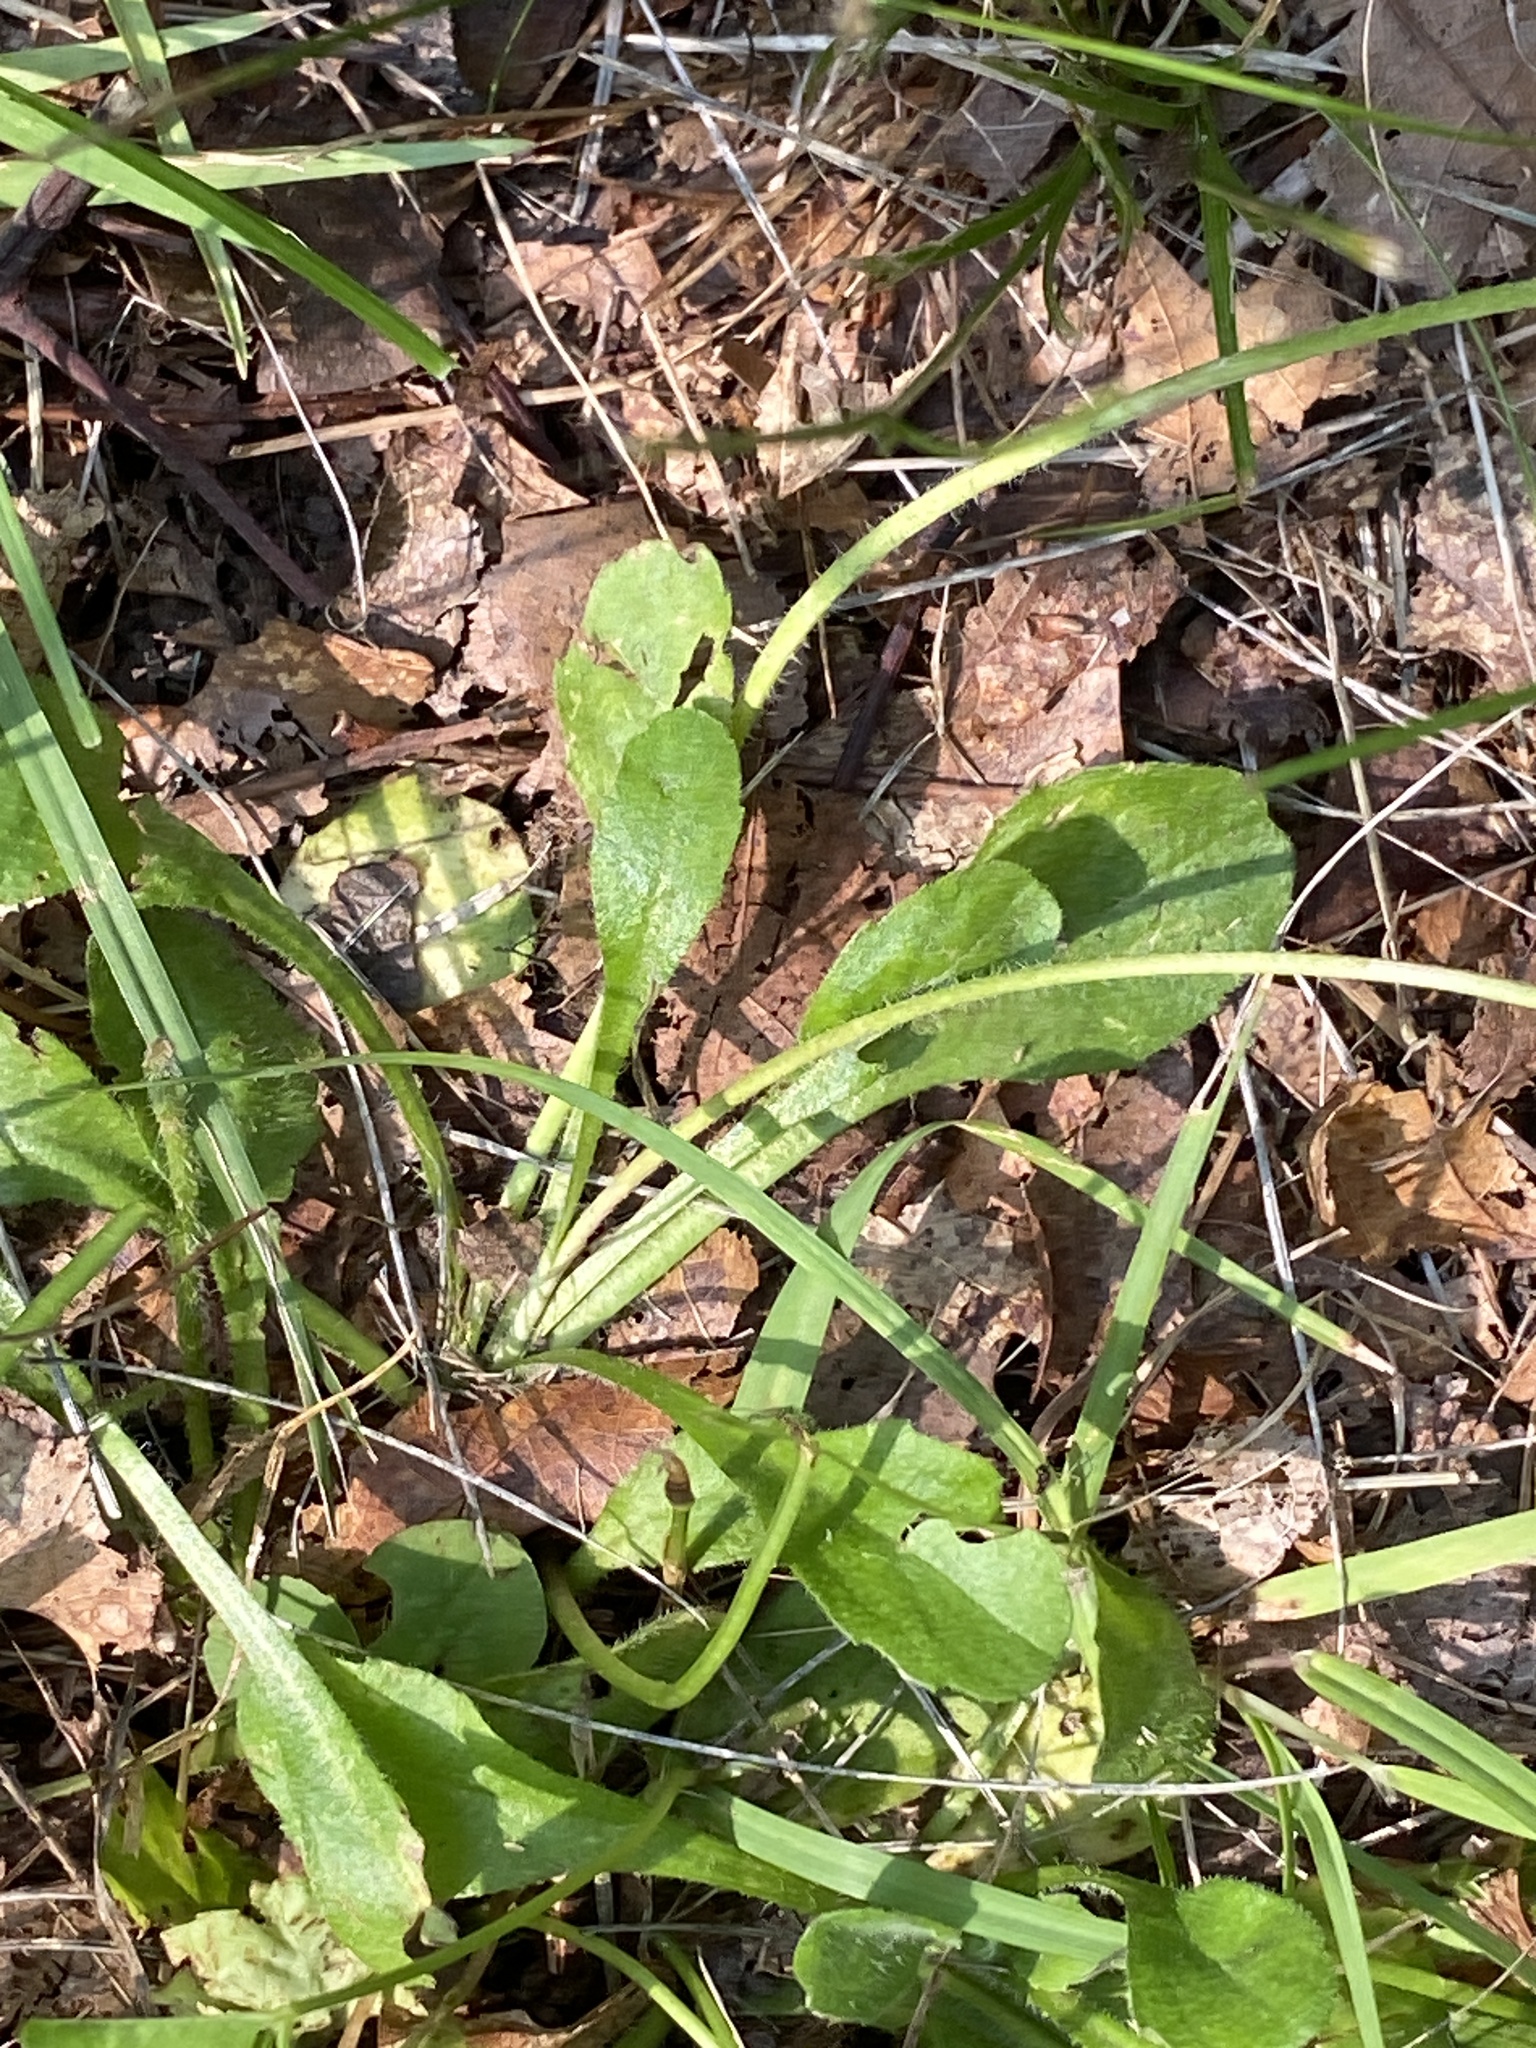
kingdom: Plantae
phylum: Tracheophyta
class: Magnoliopsida
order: Asterales
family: Asteraceae
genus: Bellis
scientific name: Bellis perennis
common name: Lawndaisy
